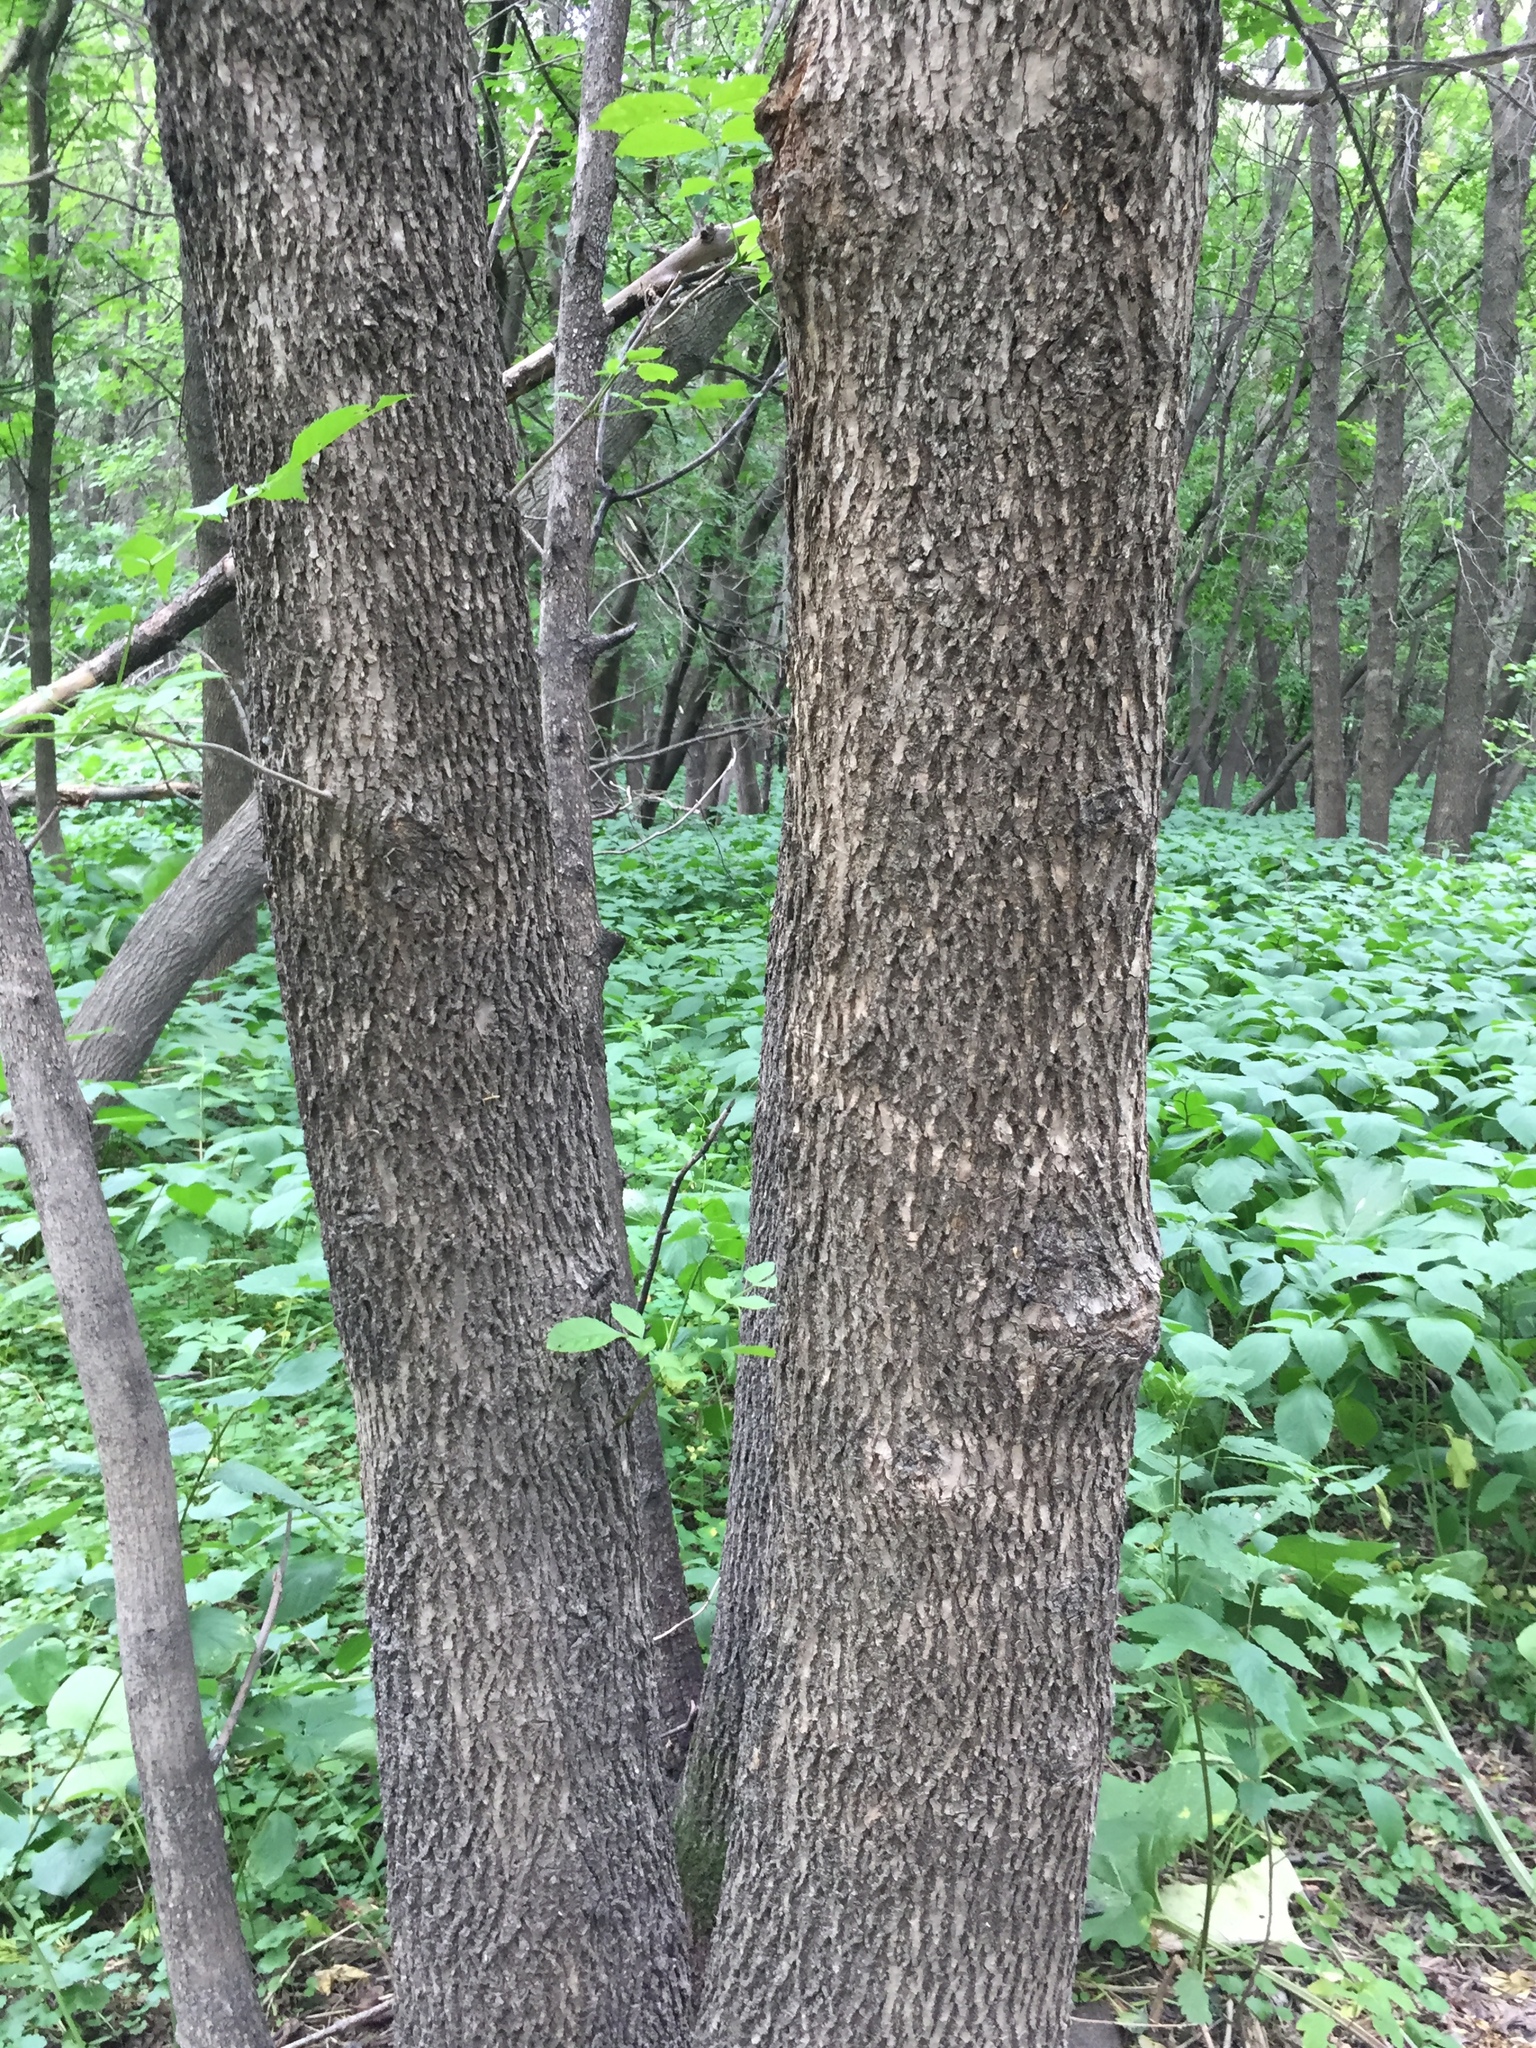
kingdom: Plantae
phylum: Tracheophyta
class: Magnoliopsida
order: Lamiales
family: Oleaceae
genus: Fraxinus
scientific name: Fraxinus pennsylvanica
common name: Green ash
